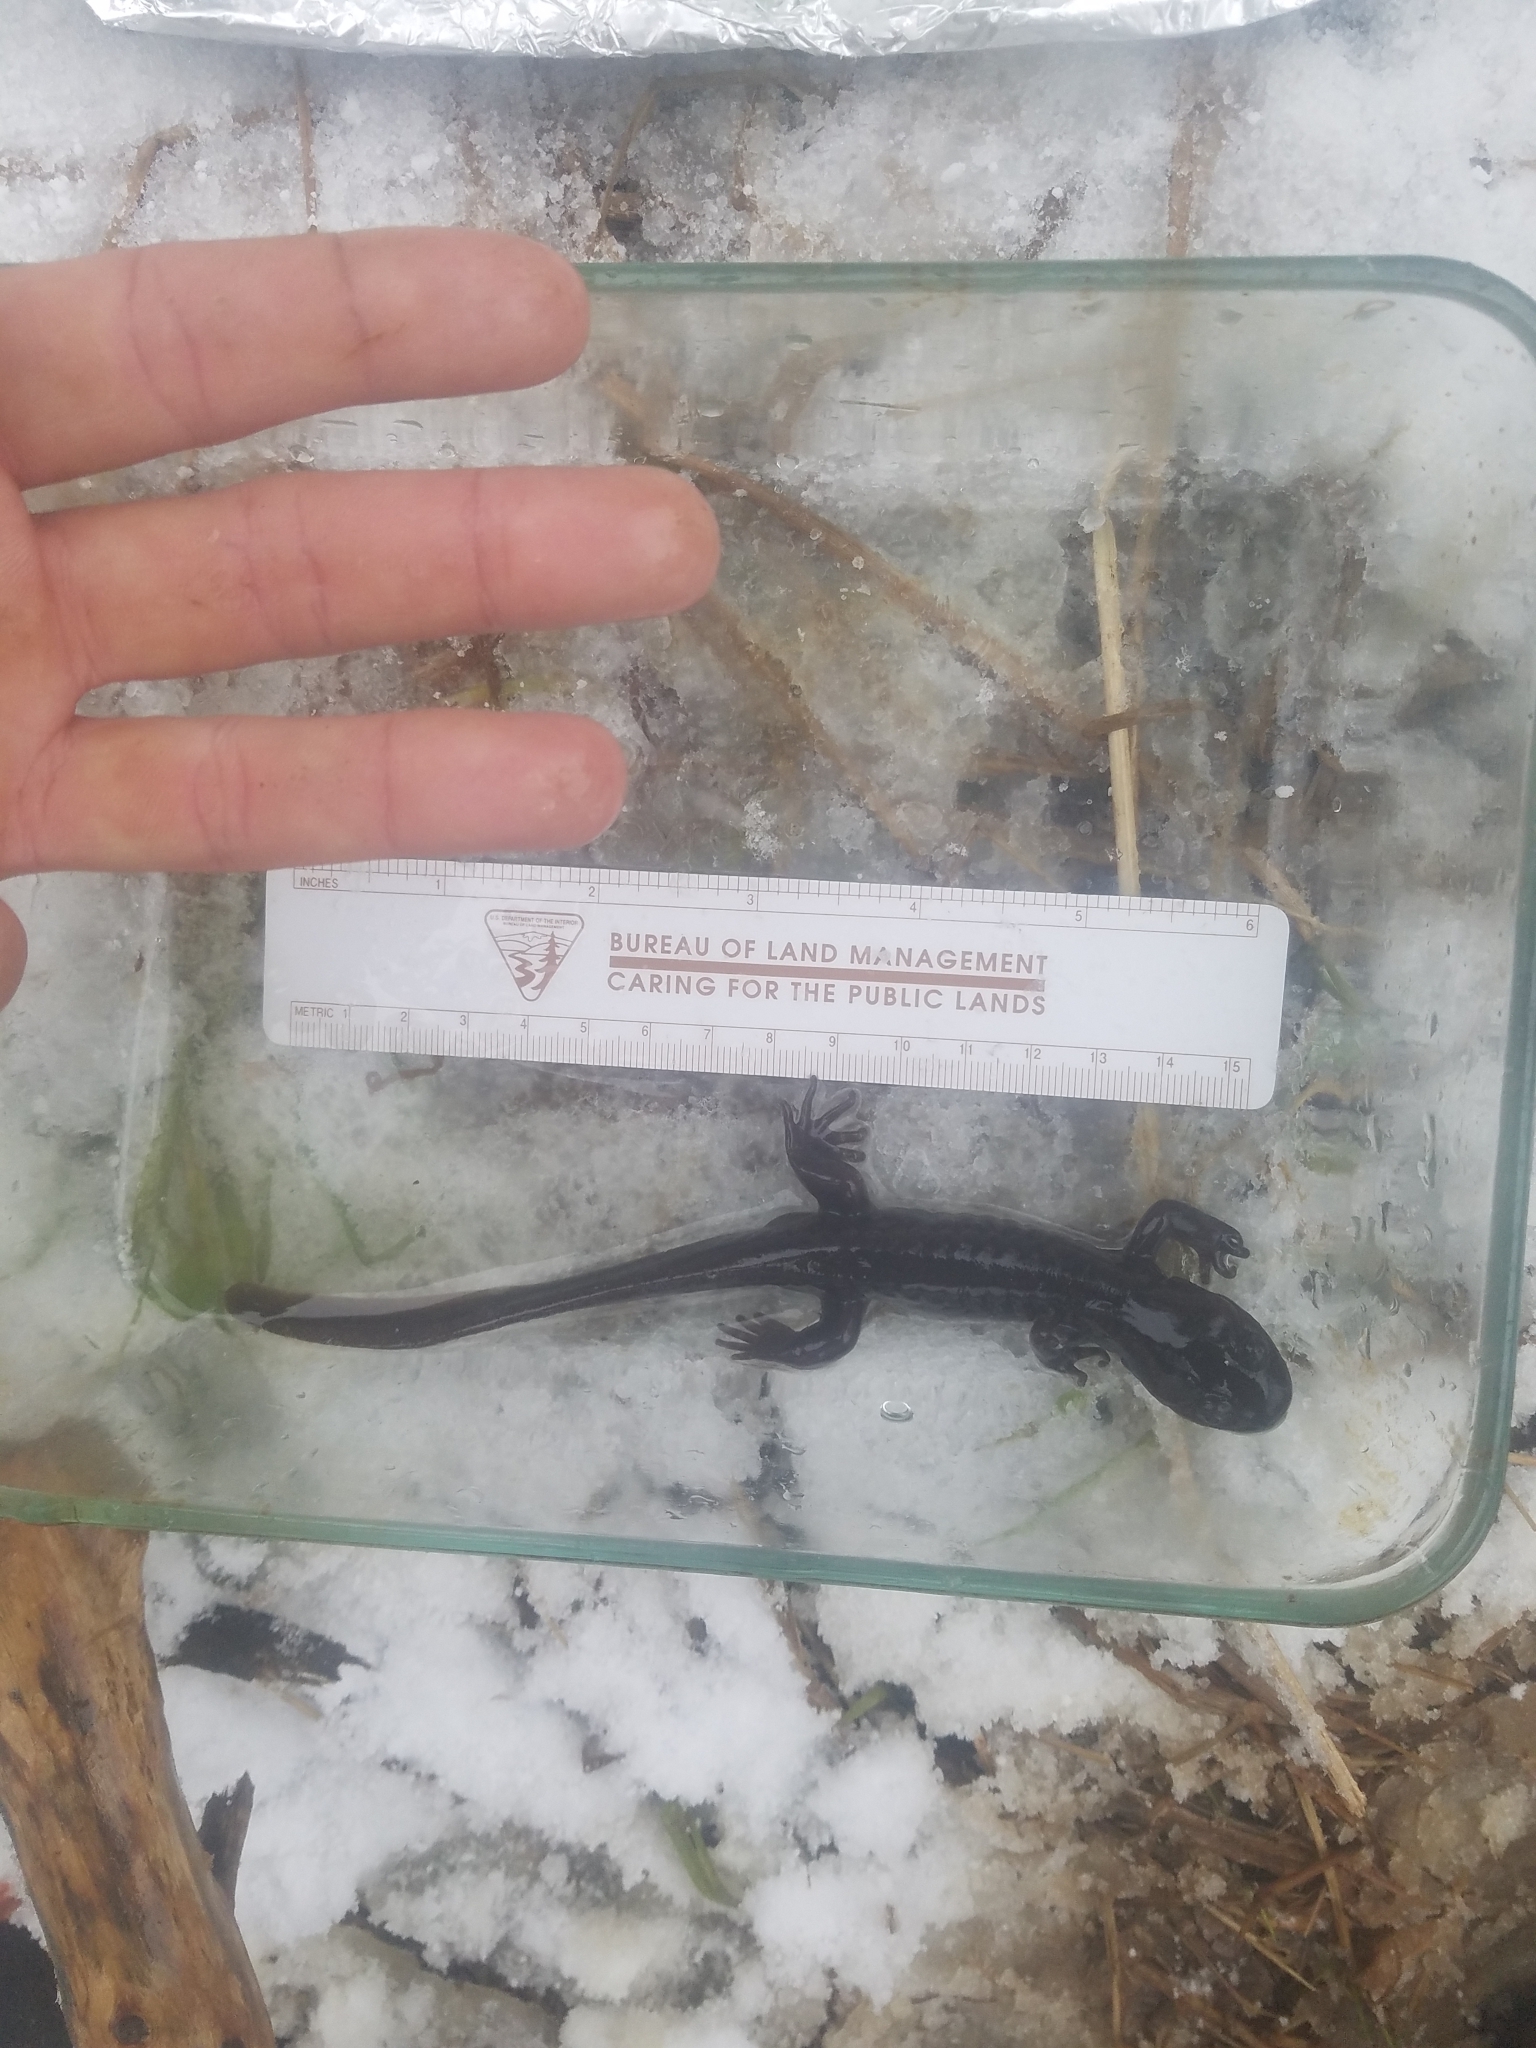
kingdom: Animalia
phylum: Chordata
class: Amphibia
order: Caudata
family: Ambystomatidae
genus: Ambystoma
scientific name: Ambystoma gracile
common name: Northwestern salamander
